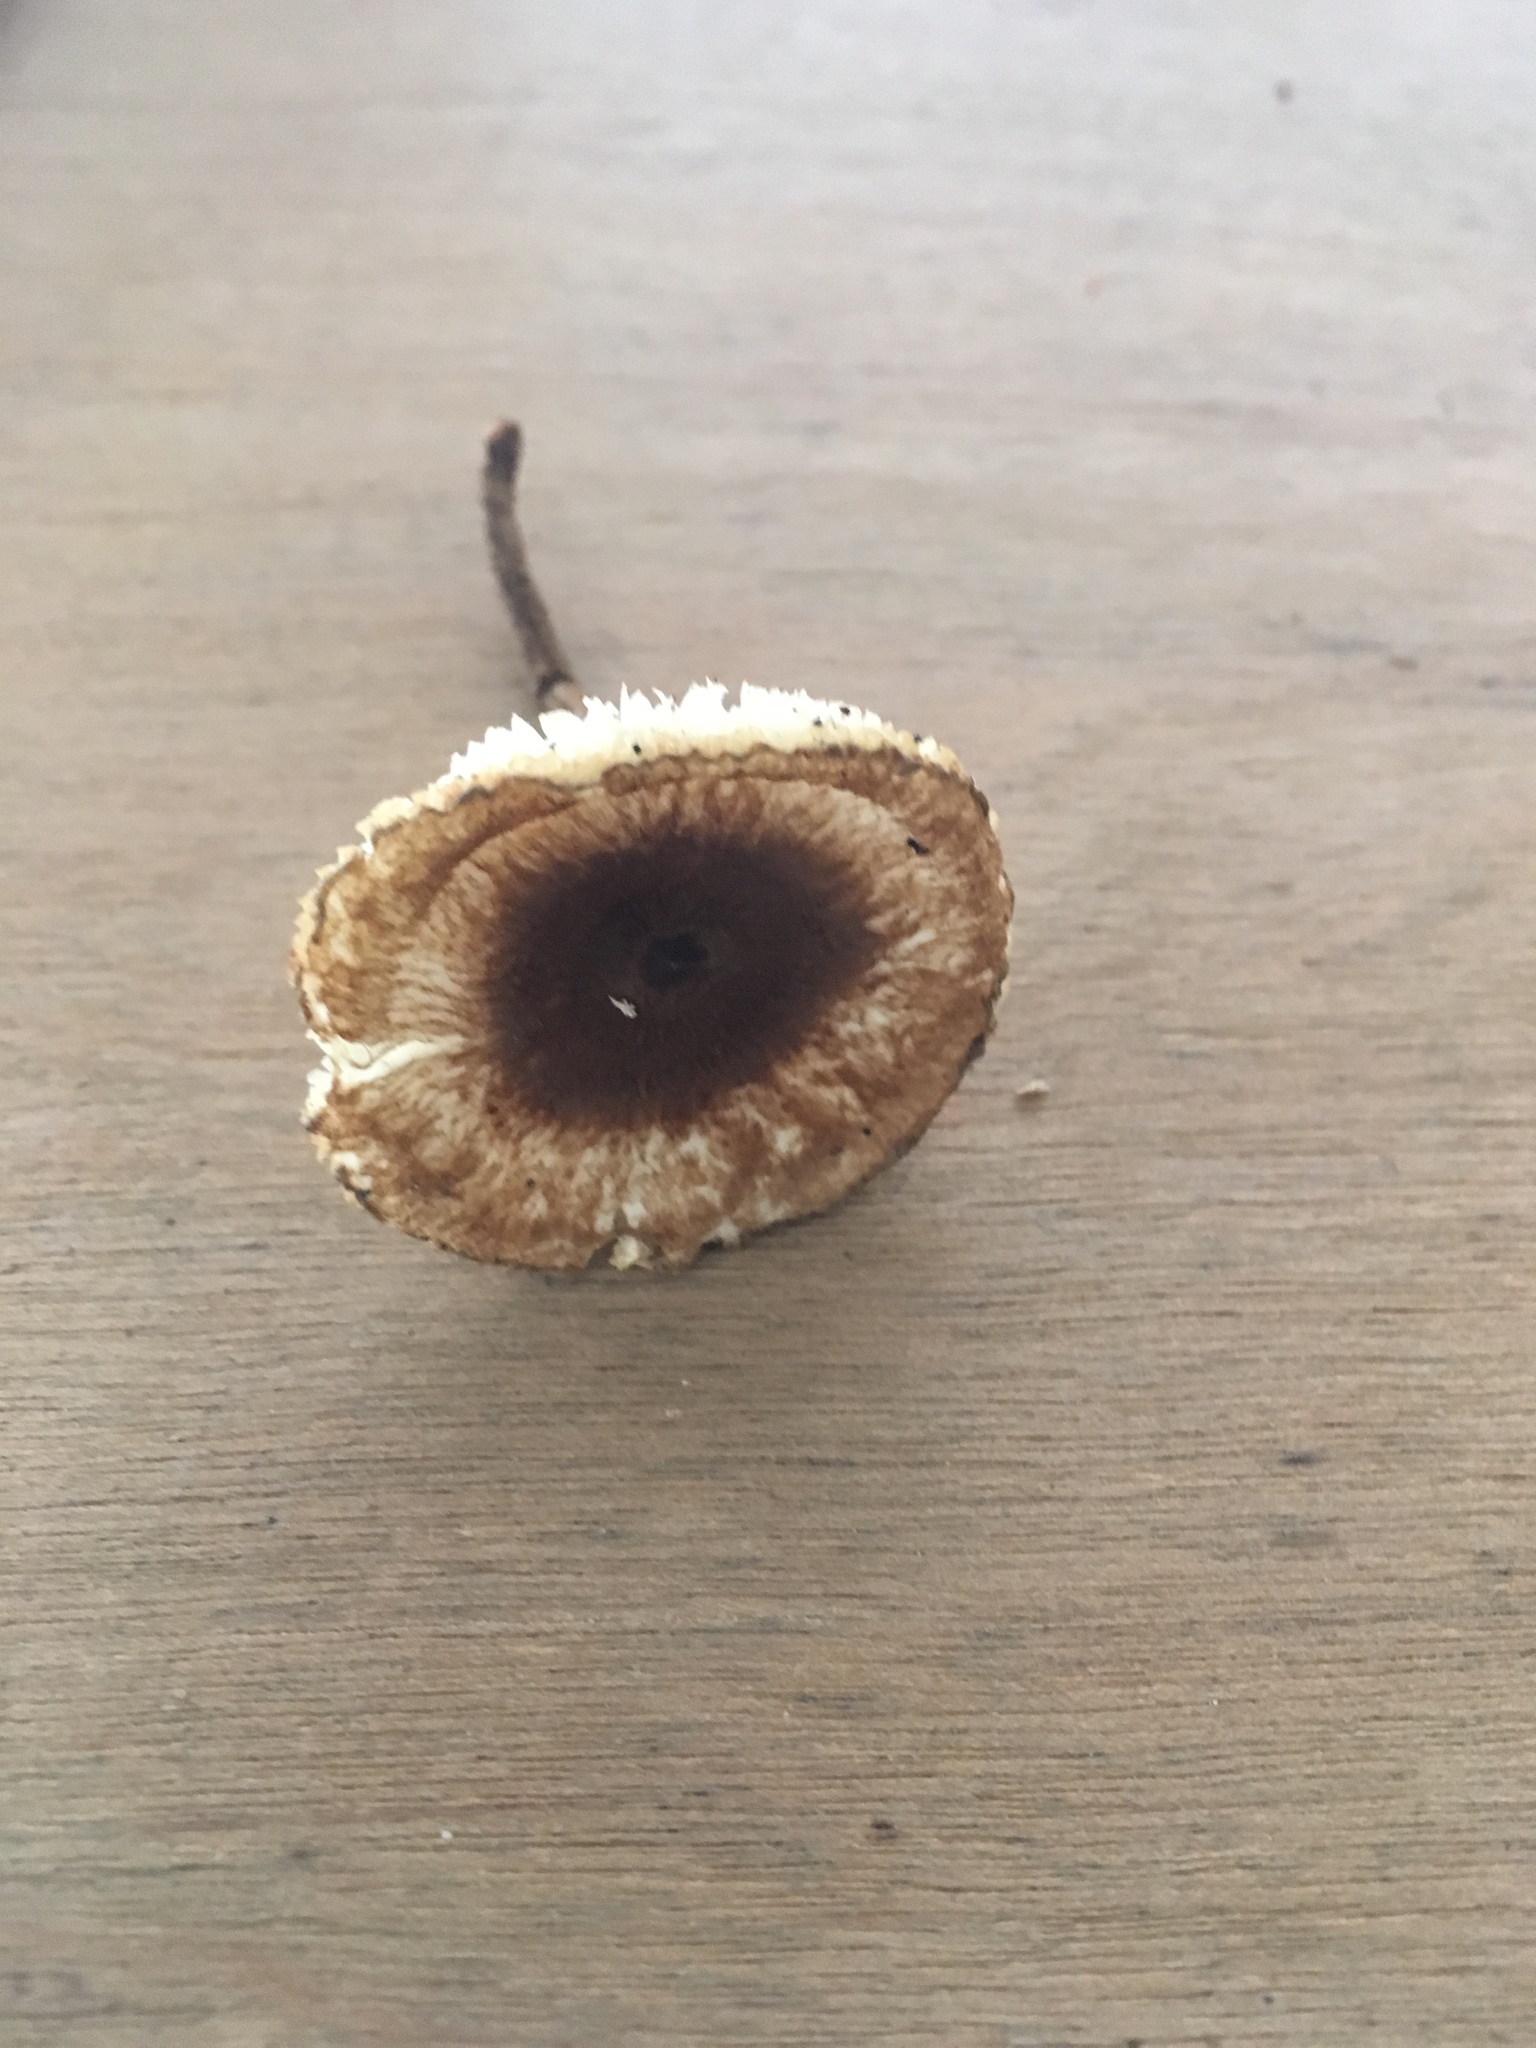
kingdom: Fungi
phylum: Basidiomycota
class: Agaricomycetes
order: Agaricales
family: Tricholomataceae
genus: Collybia
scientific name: Collybia zonata
